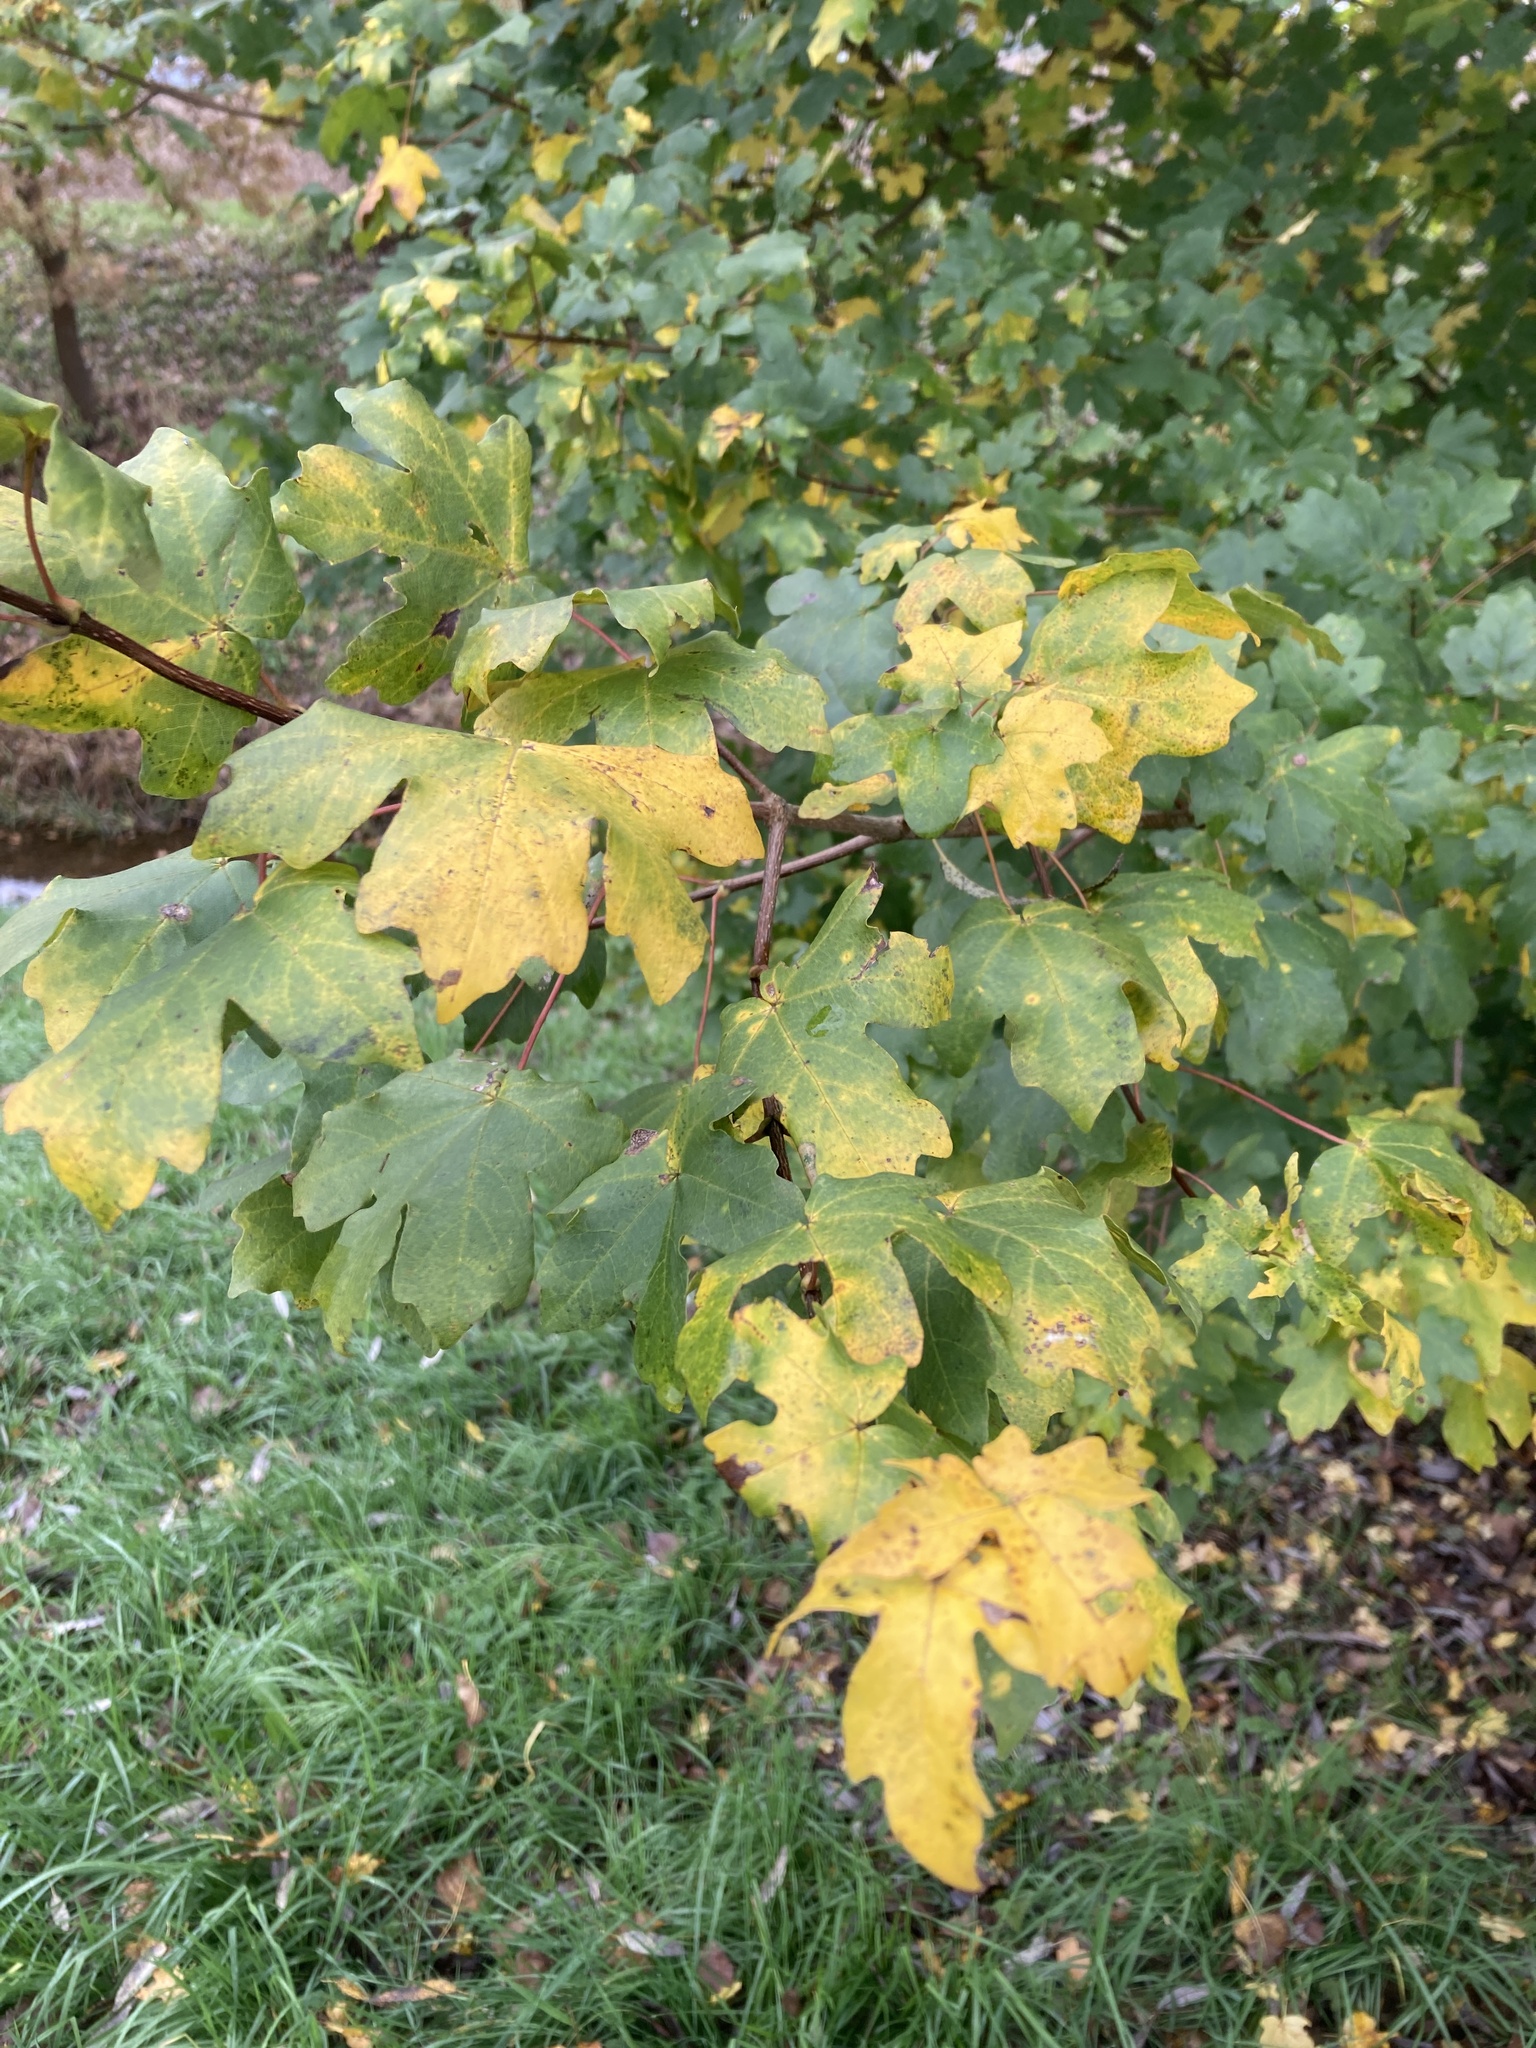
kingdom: Plantae
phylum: Tracheophyta
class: Magnoliopsida
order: Sapindales
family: Sapindaceae
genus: Acer
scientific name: Acer campestre
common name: Field maple
